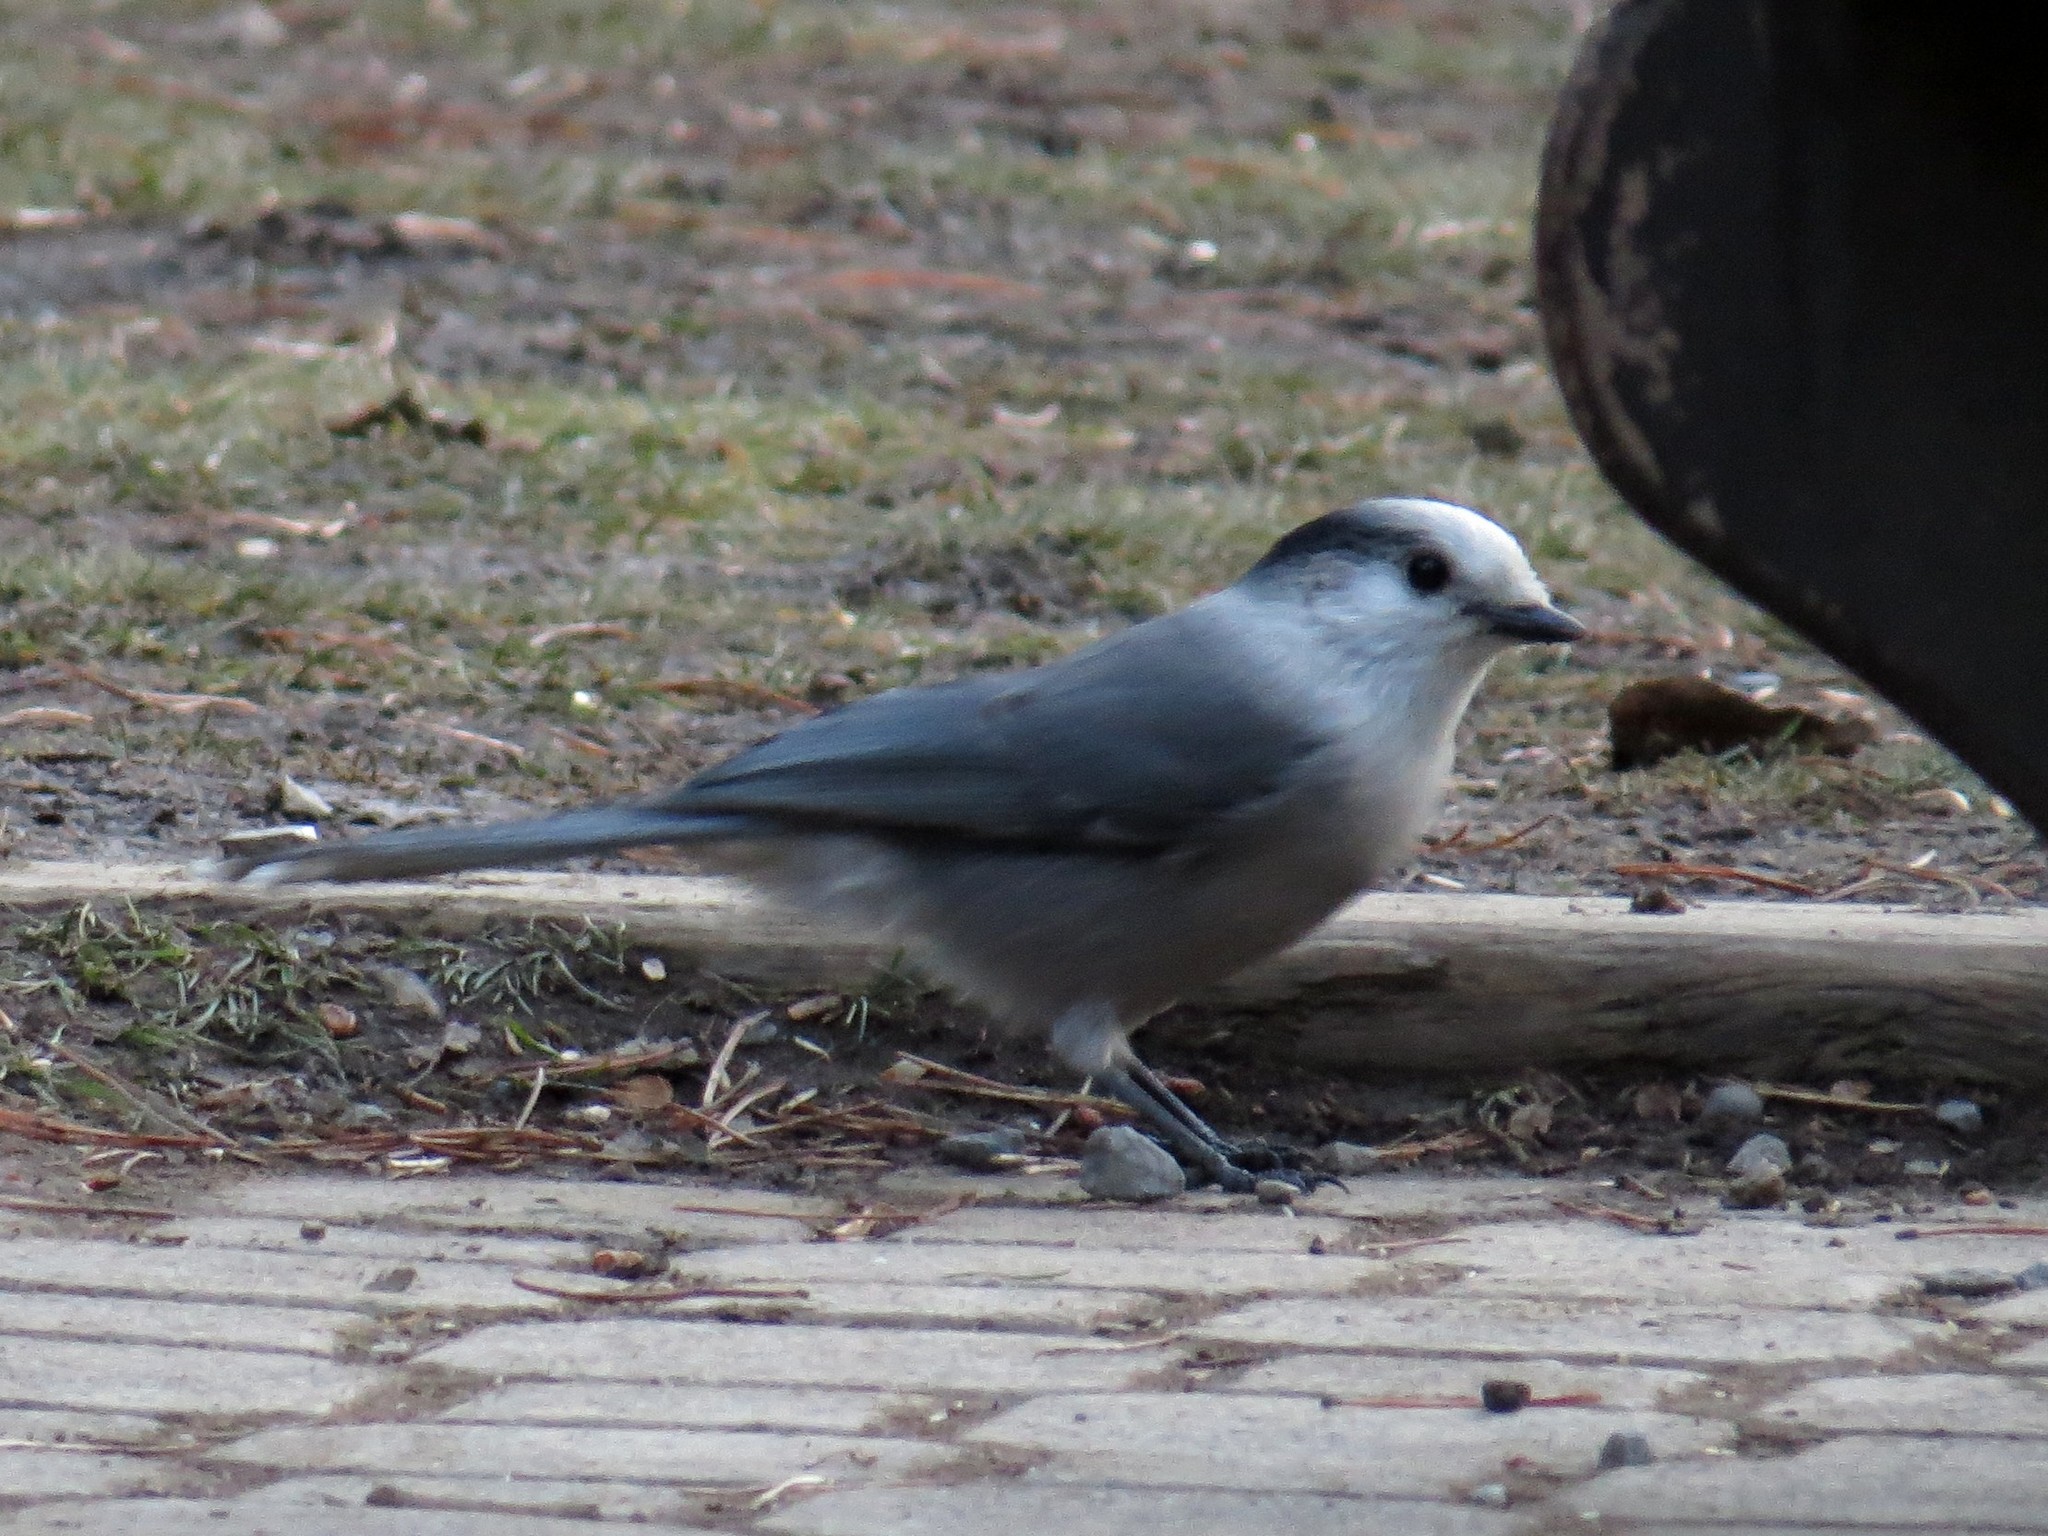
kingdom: Animalia
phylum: Chordata
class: Aves
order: Passeriformes
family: Corvidae
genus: Perisoreus
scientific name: Perisoreus canadensis
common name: Gray jay
